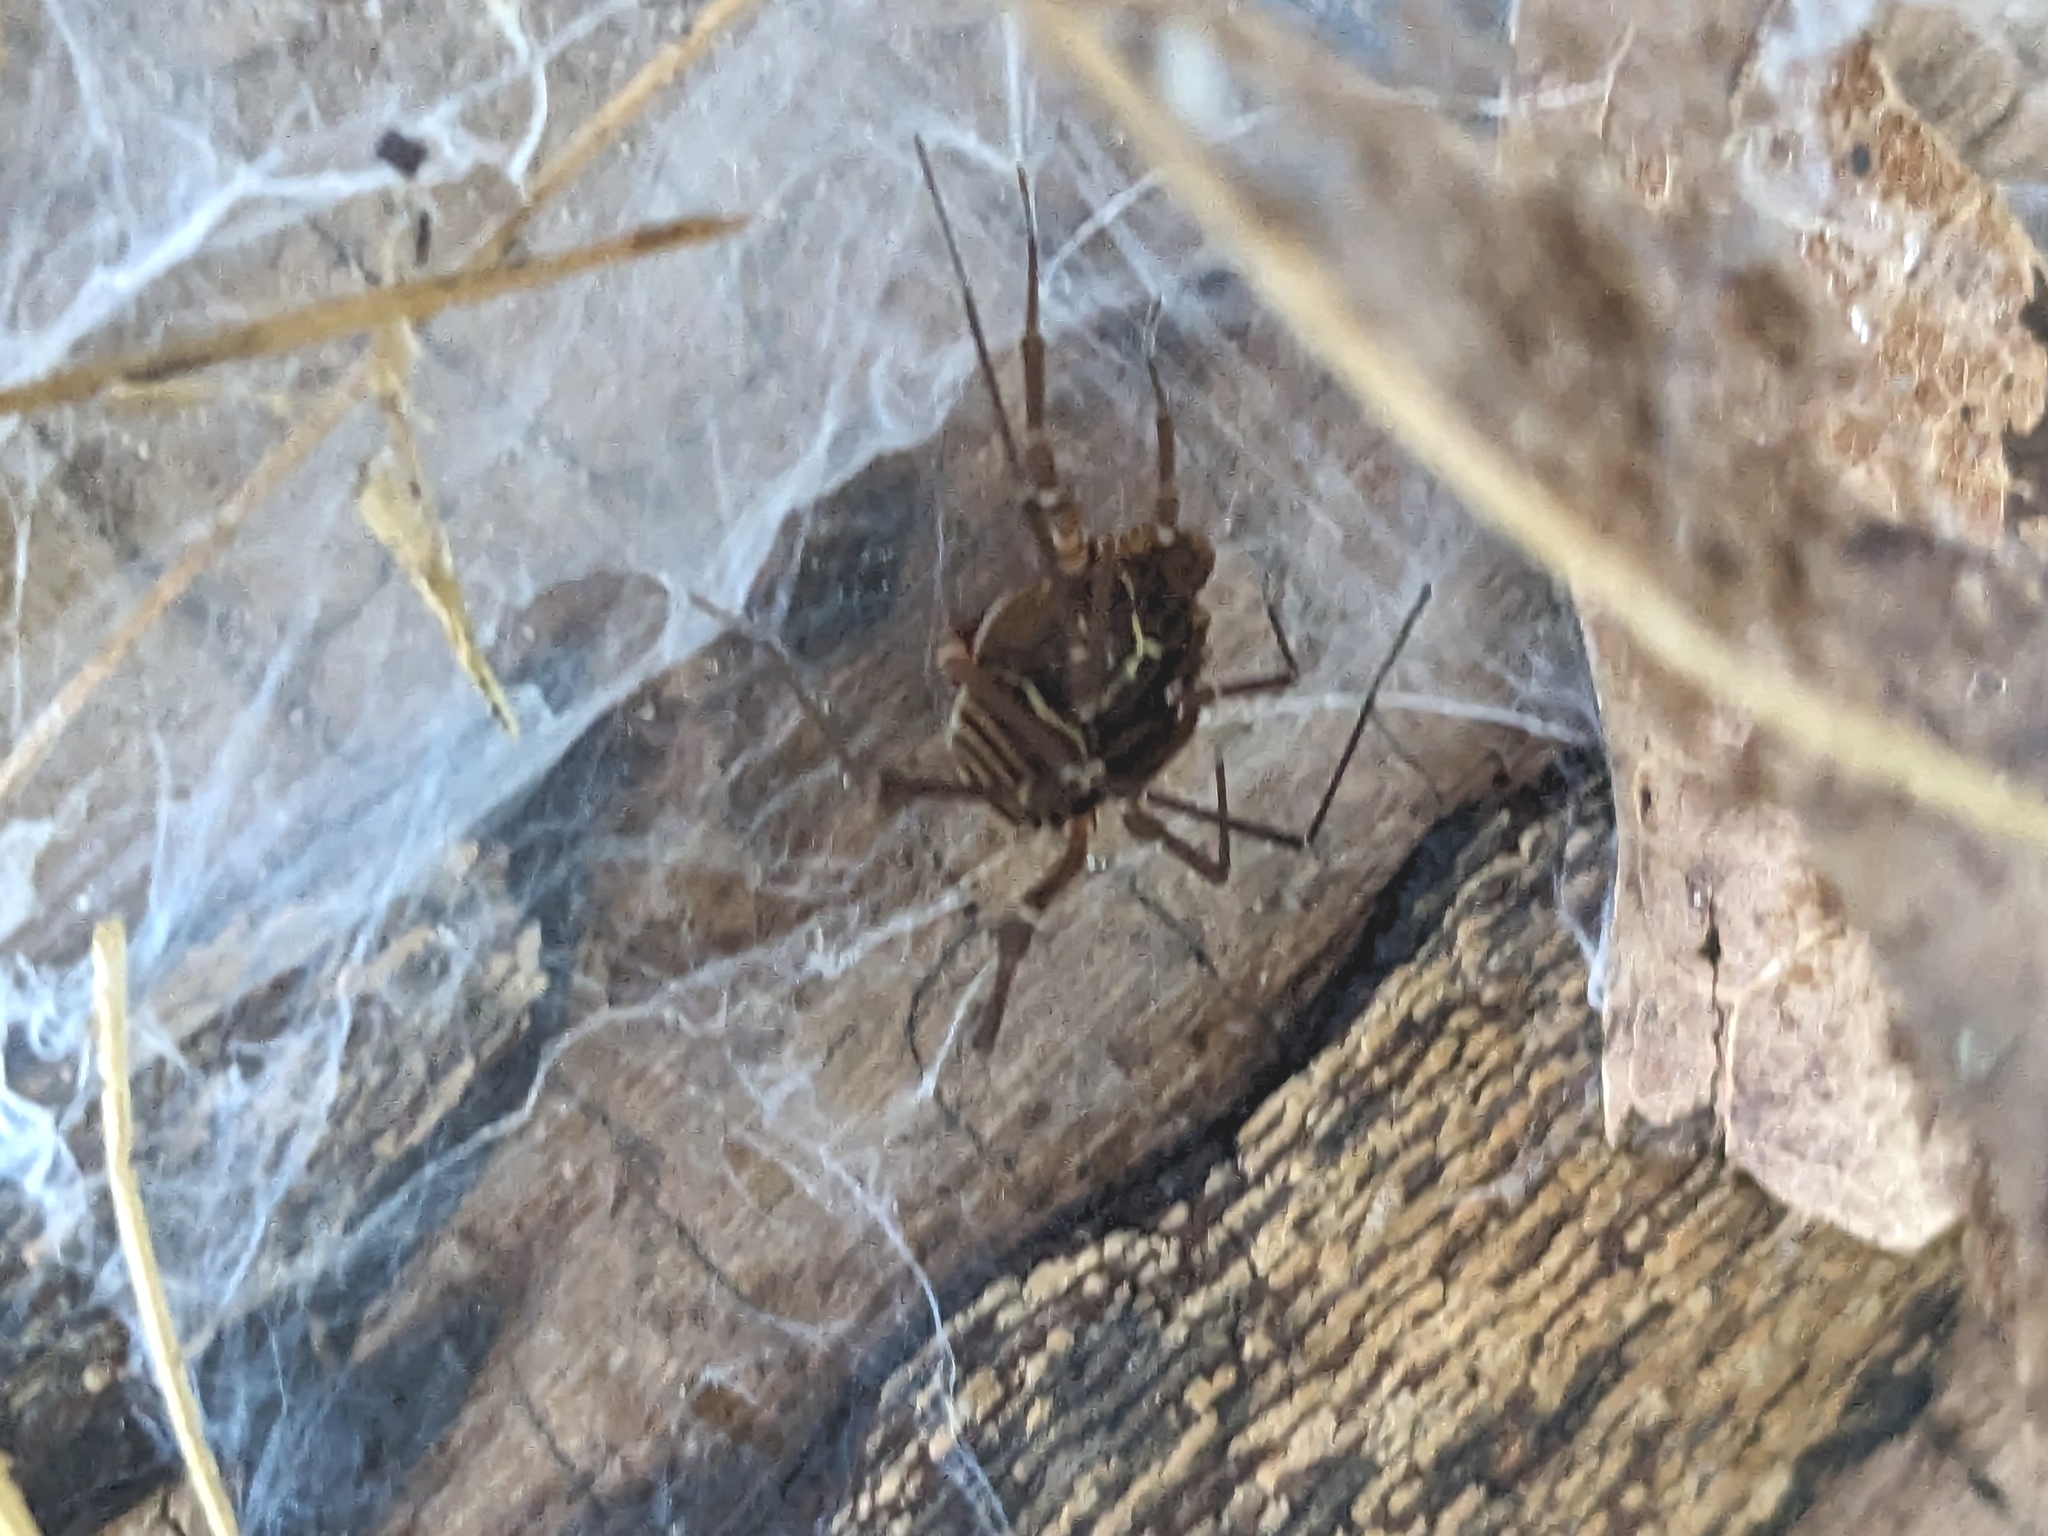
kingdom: Animalia
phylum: Arthropoda
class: Arachnida
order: Opiliones
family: Cosmetidae
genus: Libitioides
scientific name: Libitioides sayi
